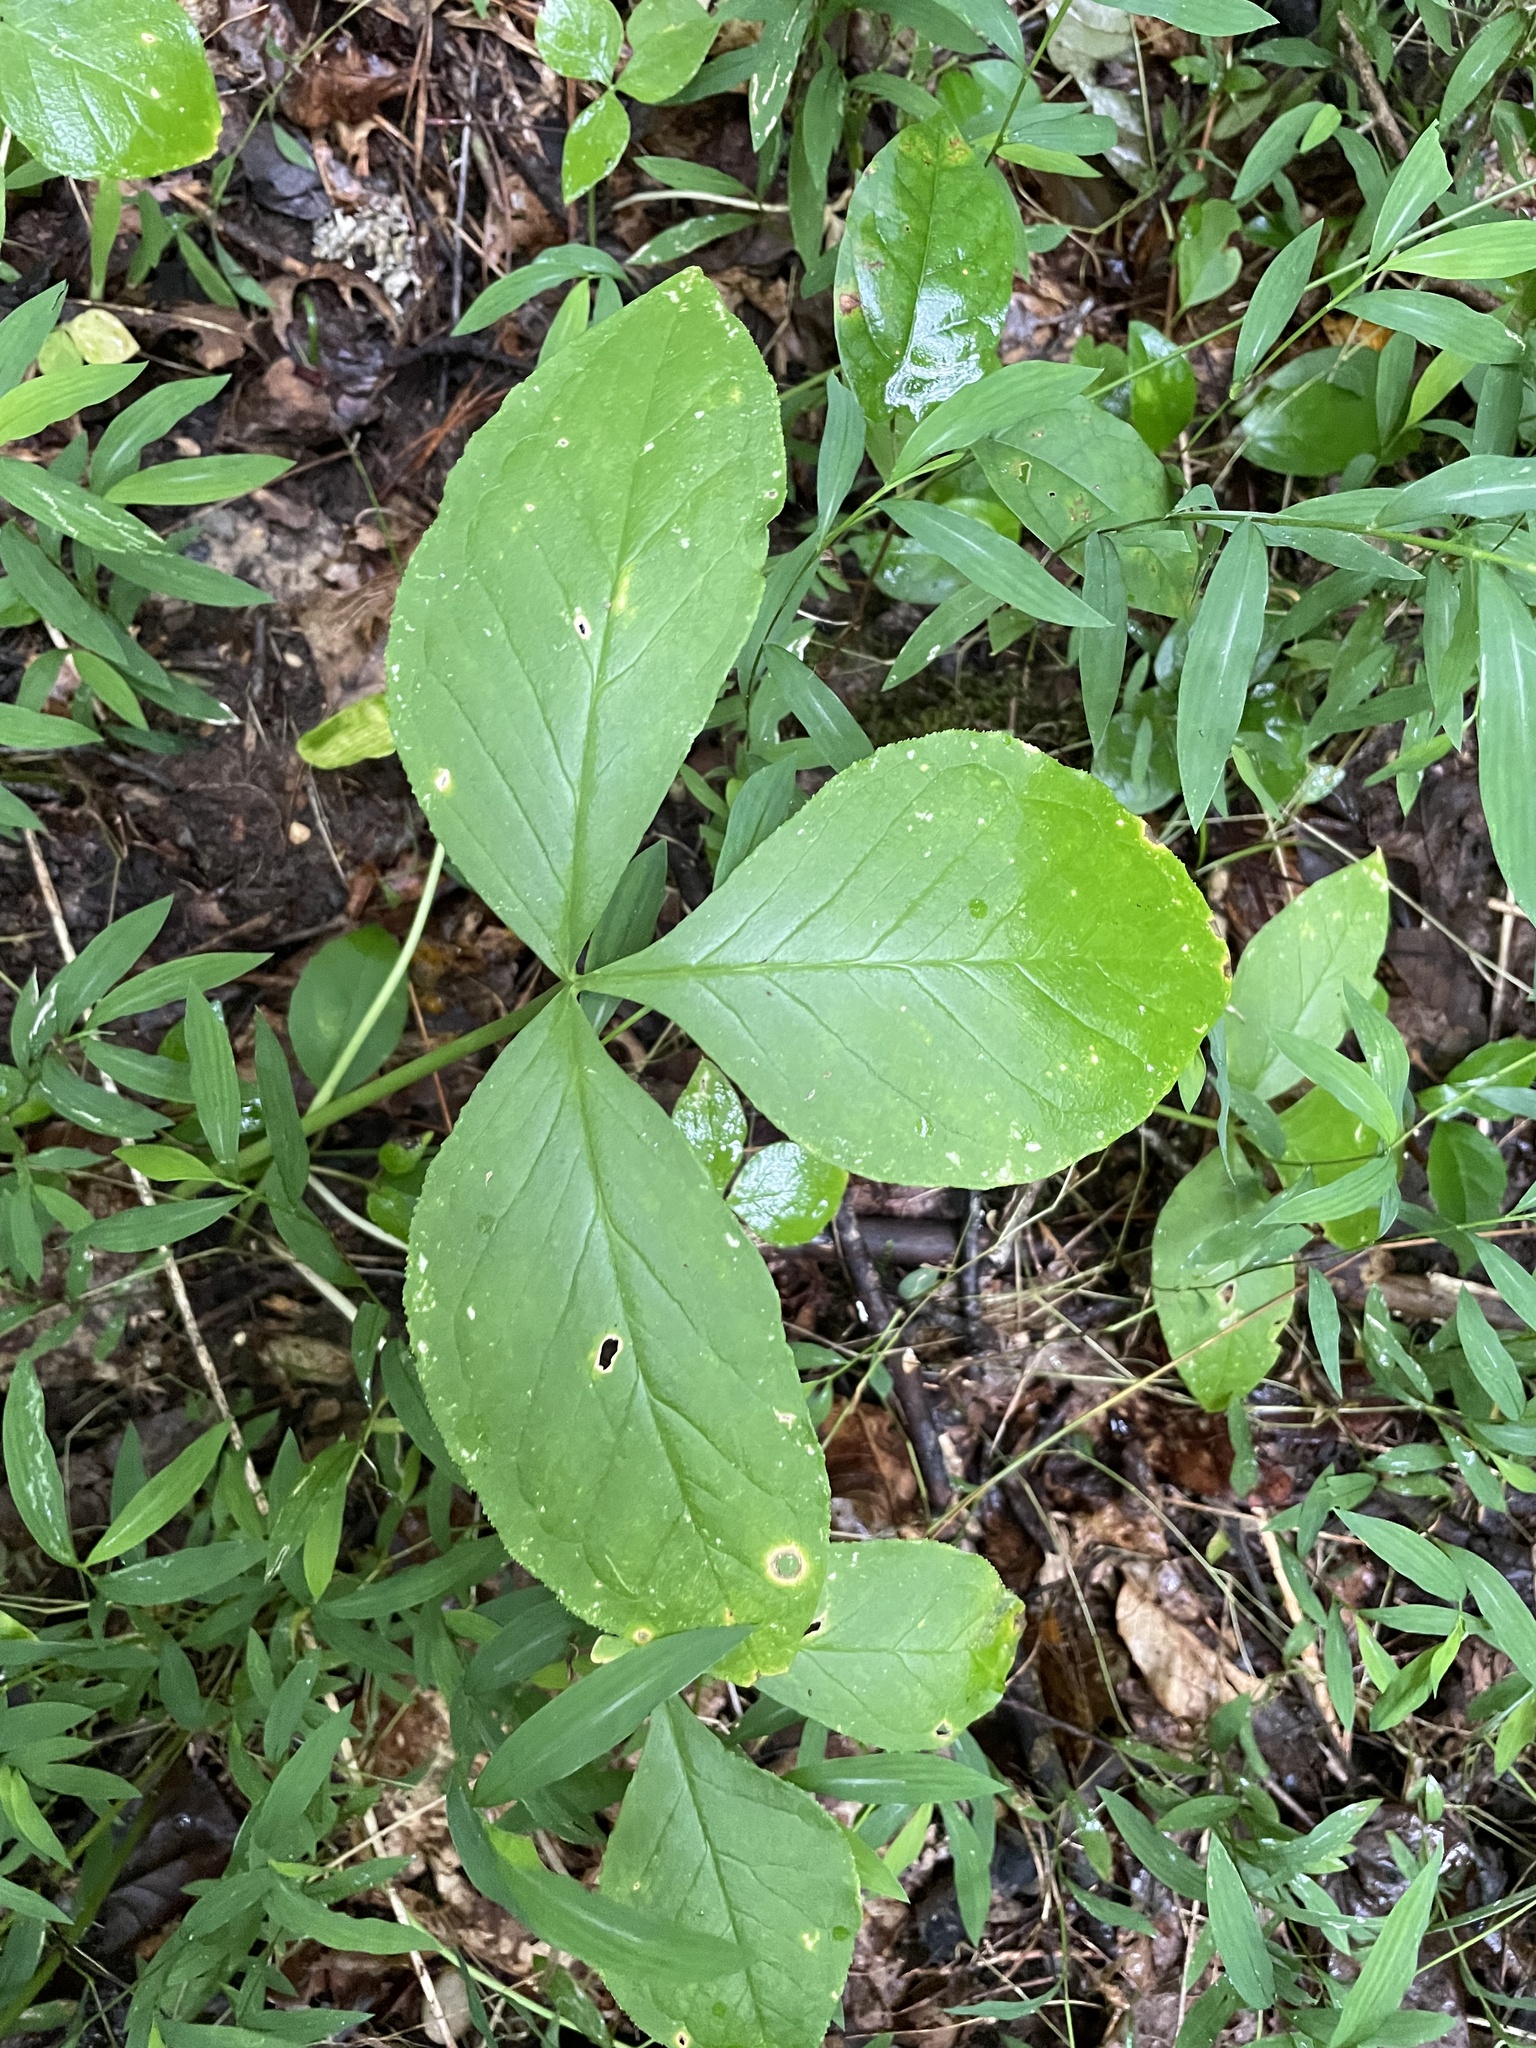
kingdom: Plantae
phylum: Tracheophyta
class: Liliopsida
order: Alismatales
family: Araceae
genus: Arisaema
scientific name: Arisaema triphyllum
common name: Jack-in-the-pulpit
